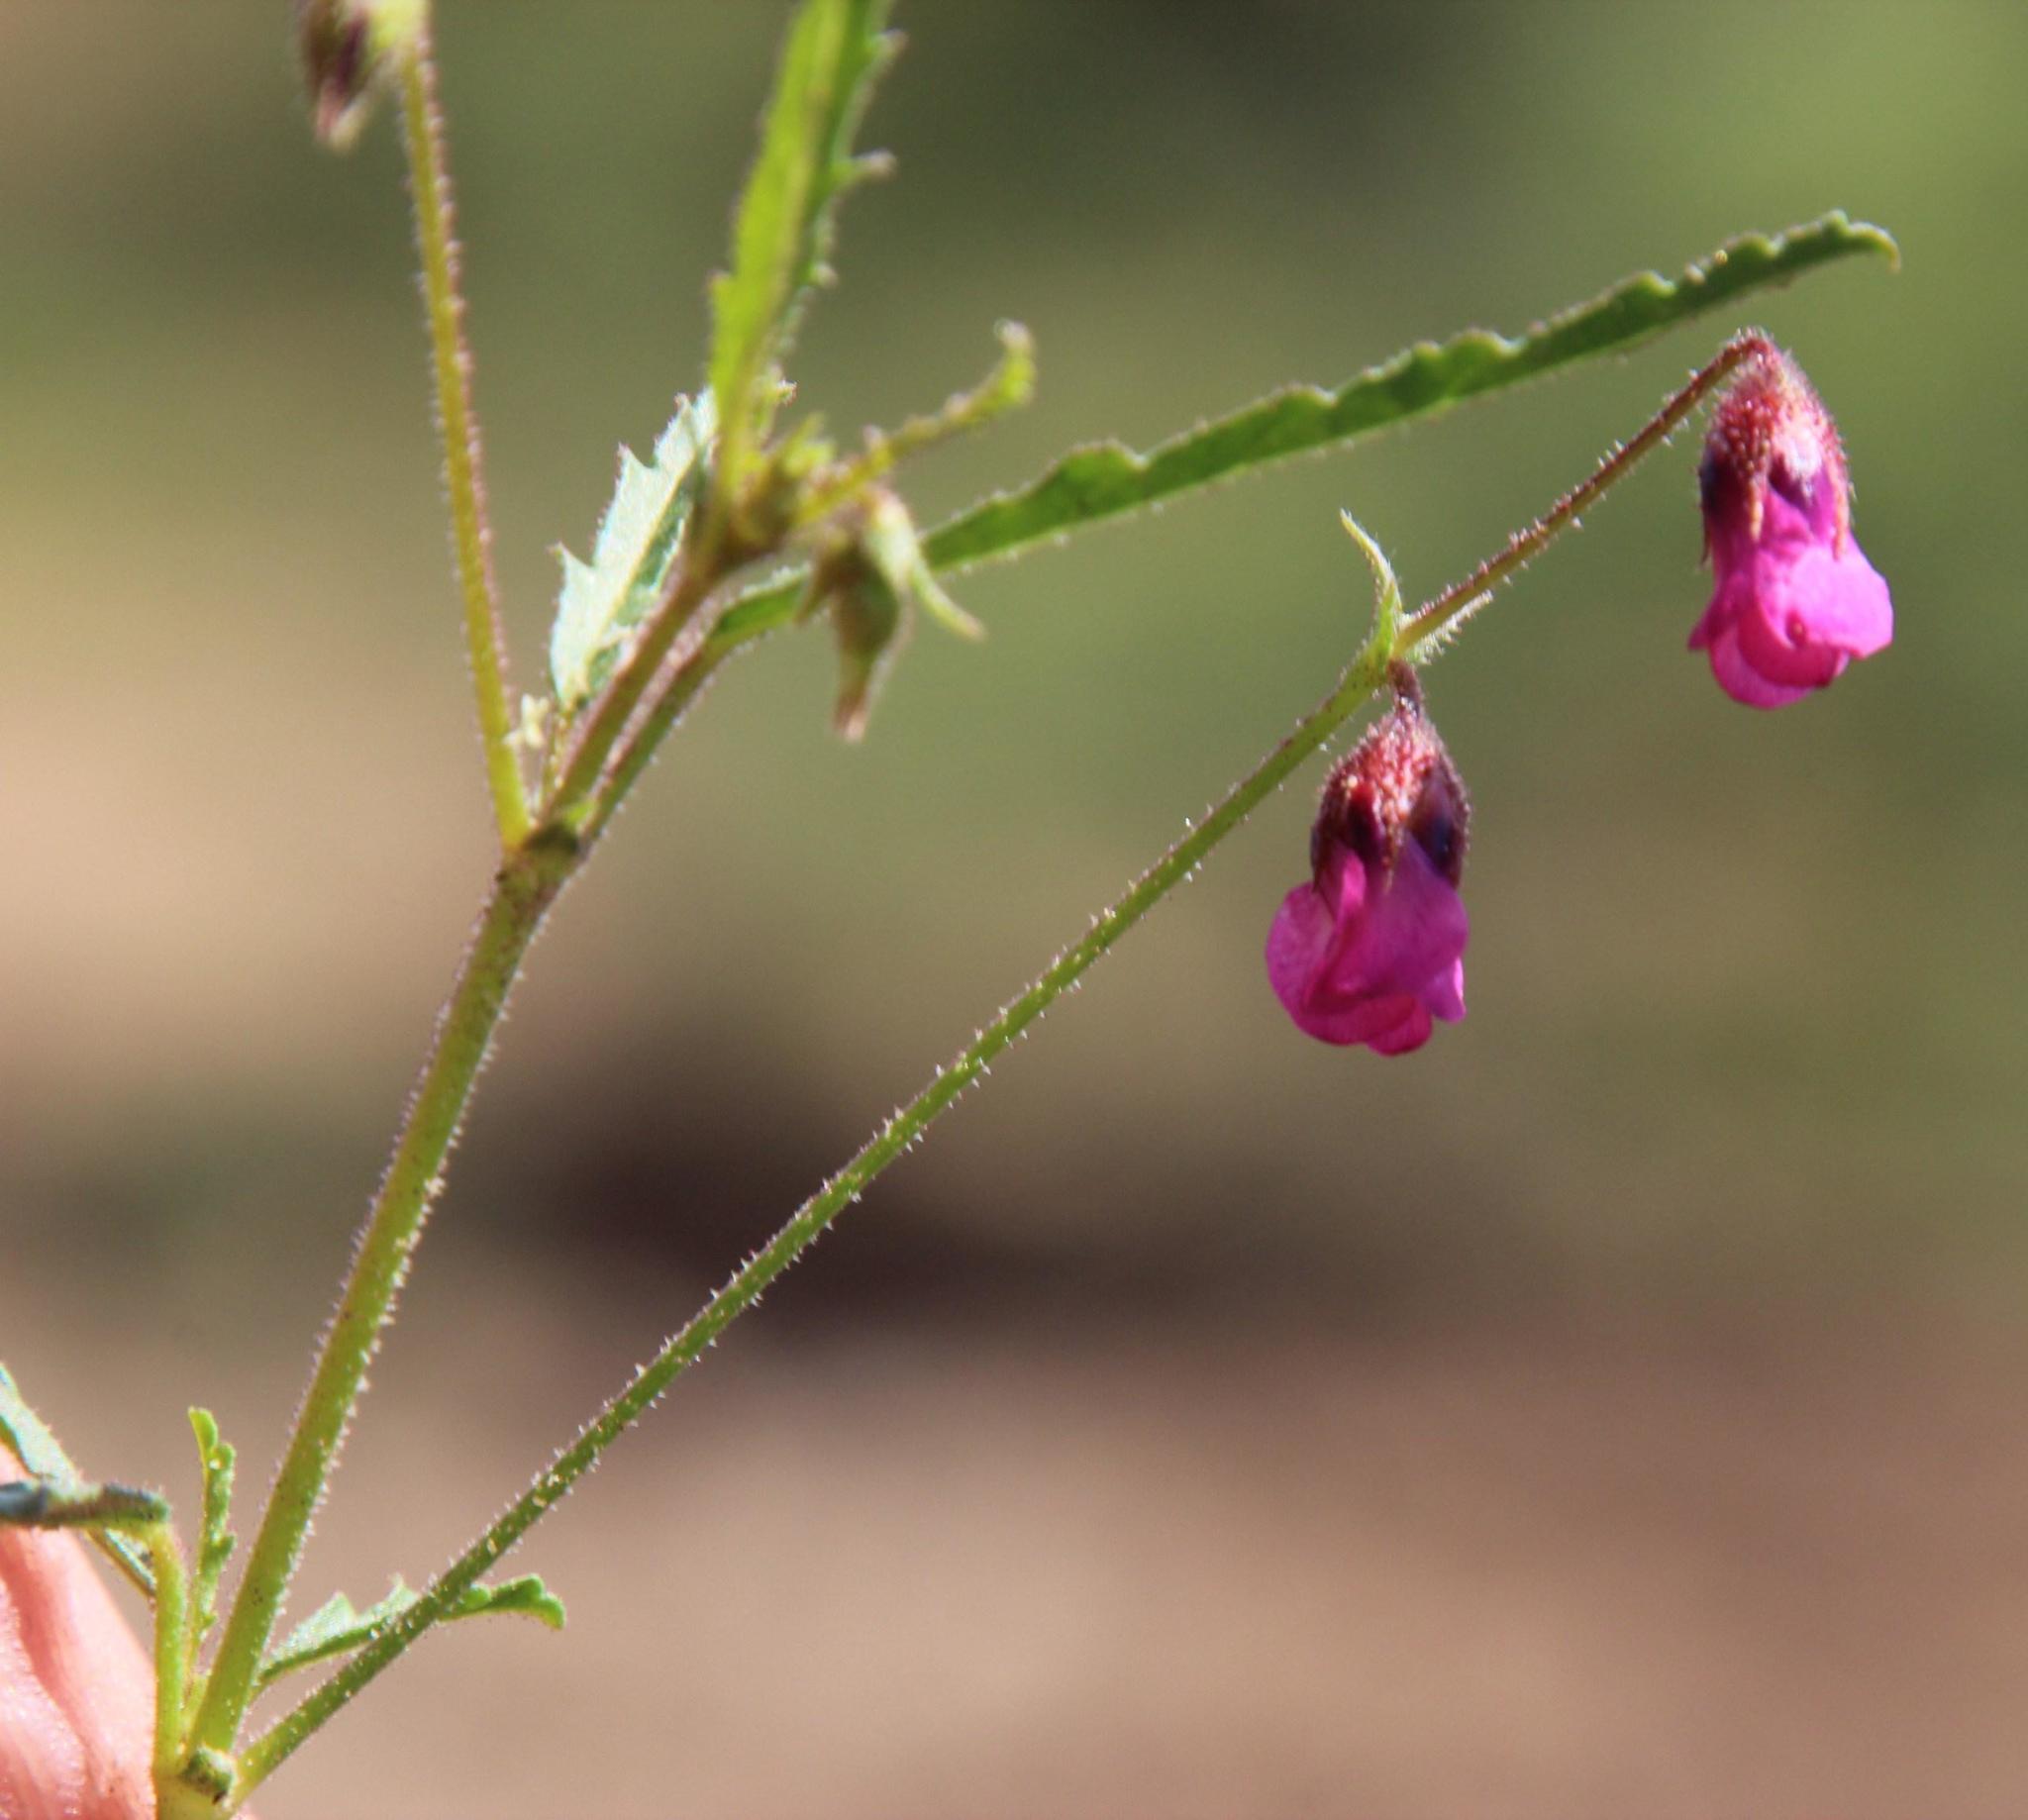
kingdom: Plantae
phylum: Tracheophyta
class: Magnoliopsida
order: Malvales
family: Malvaceae
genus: Hermannia
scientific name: Hermannia coccocarpa
